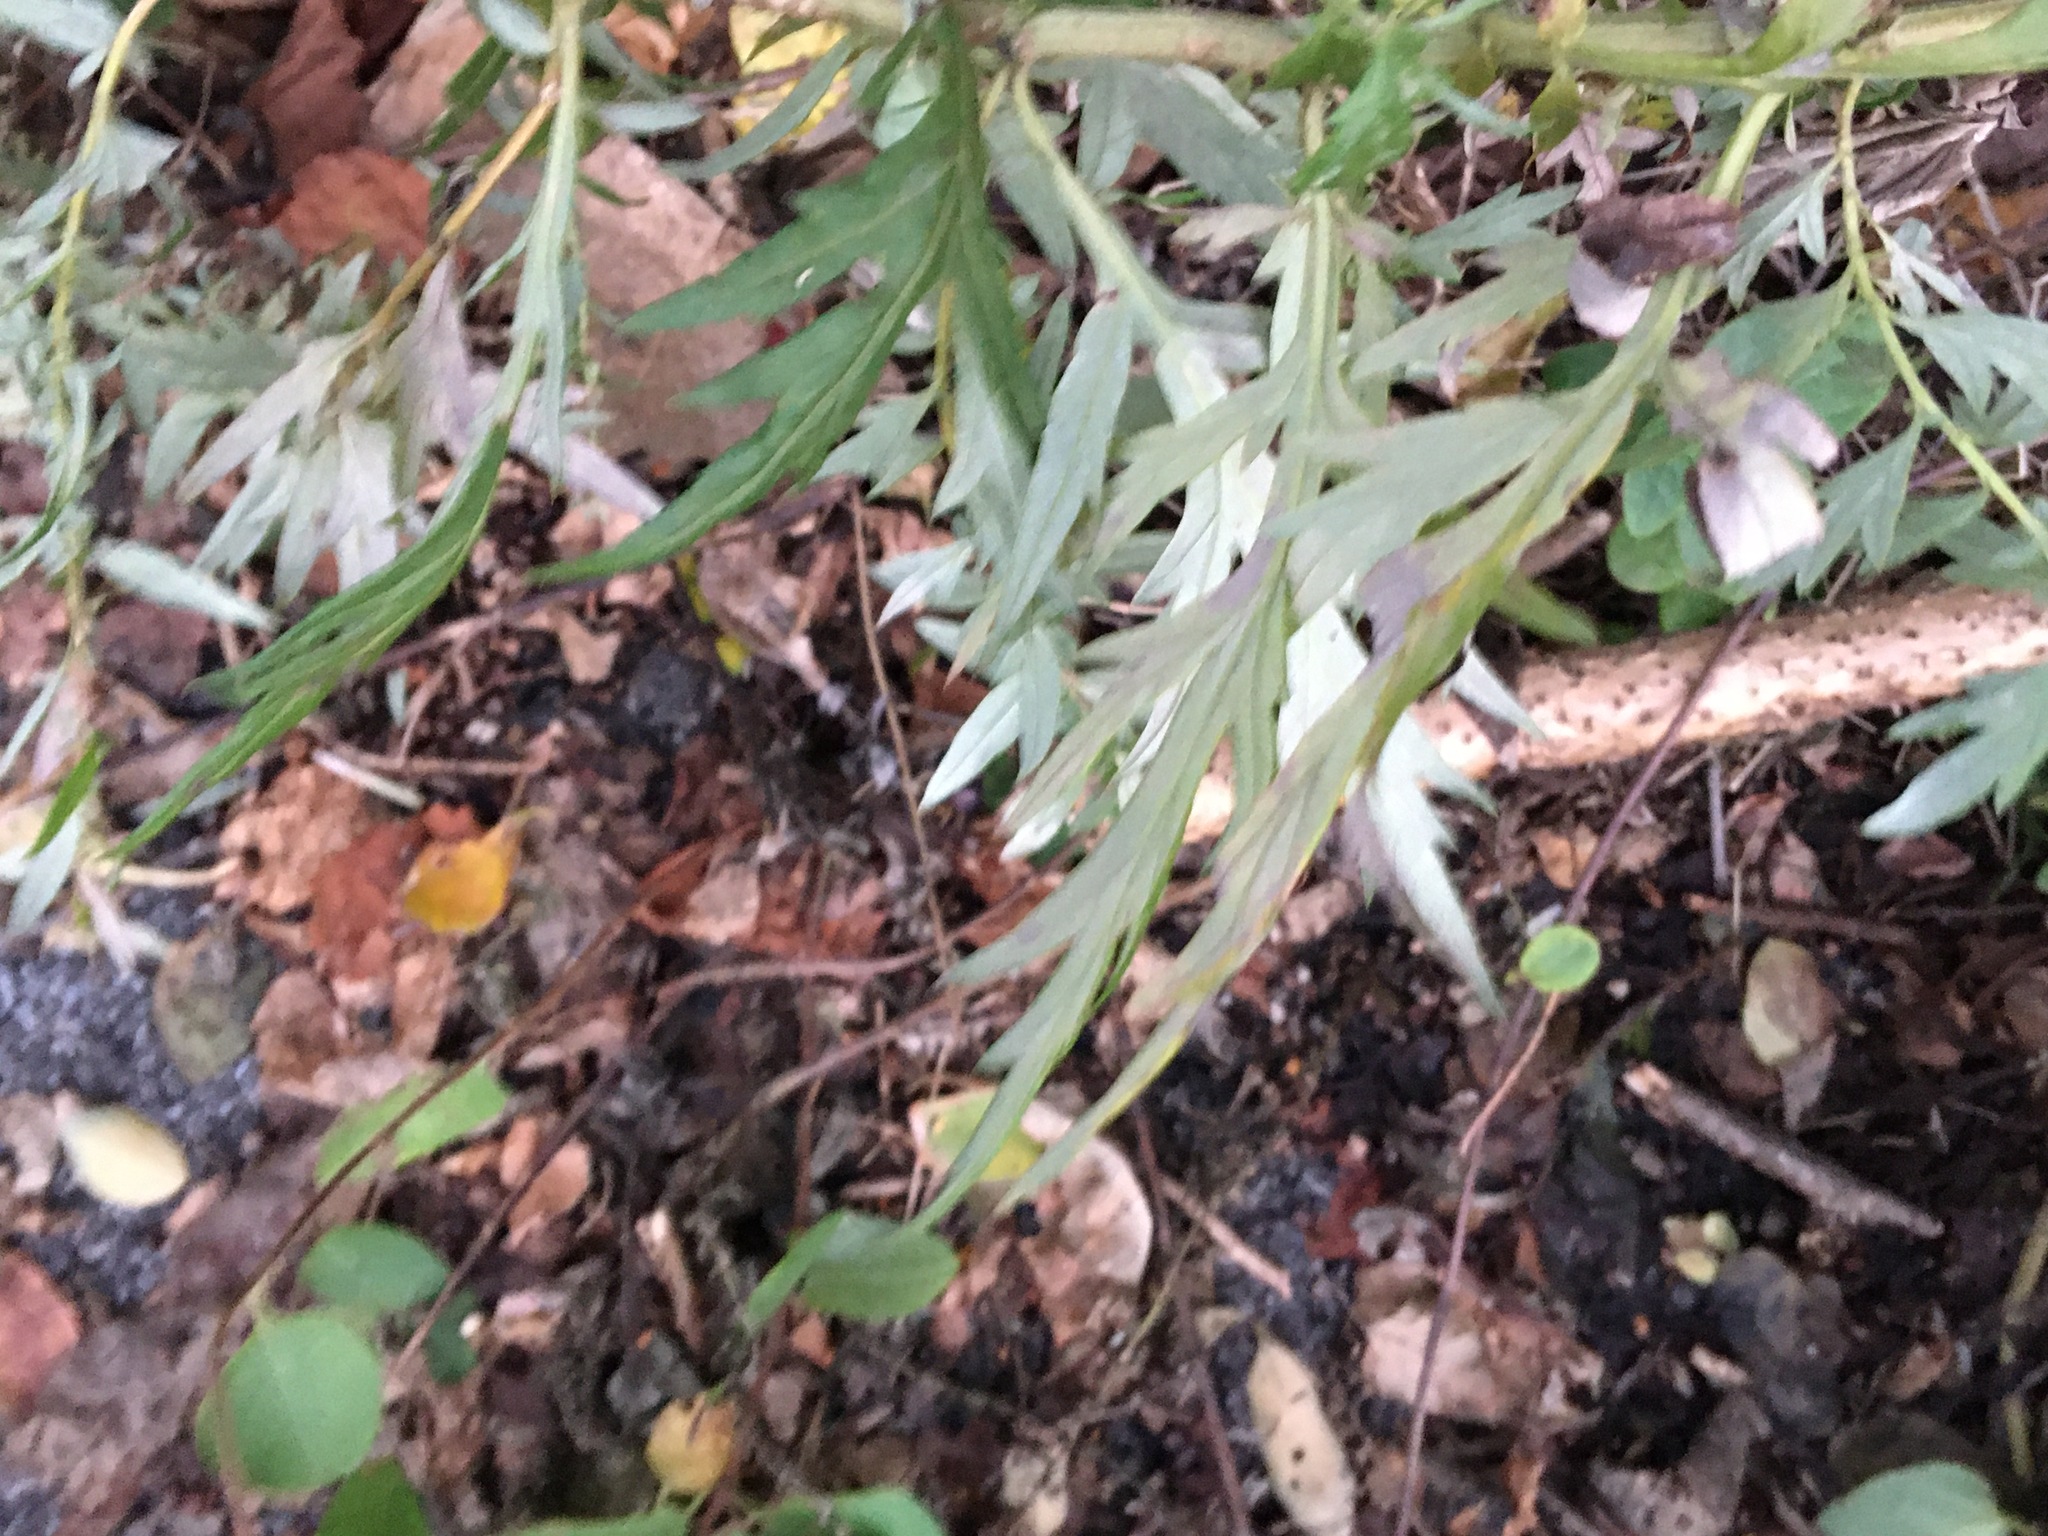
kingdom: Plantae
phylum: Tracheophyta
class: Magnoliopsida
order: Asterales
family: Asteraceae
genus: Artemisia
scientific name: Artemisia vulgaris
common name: Mugwort
